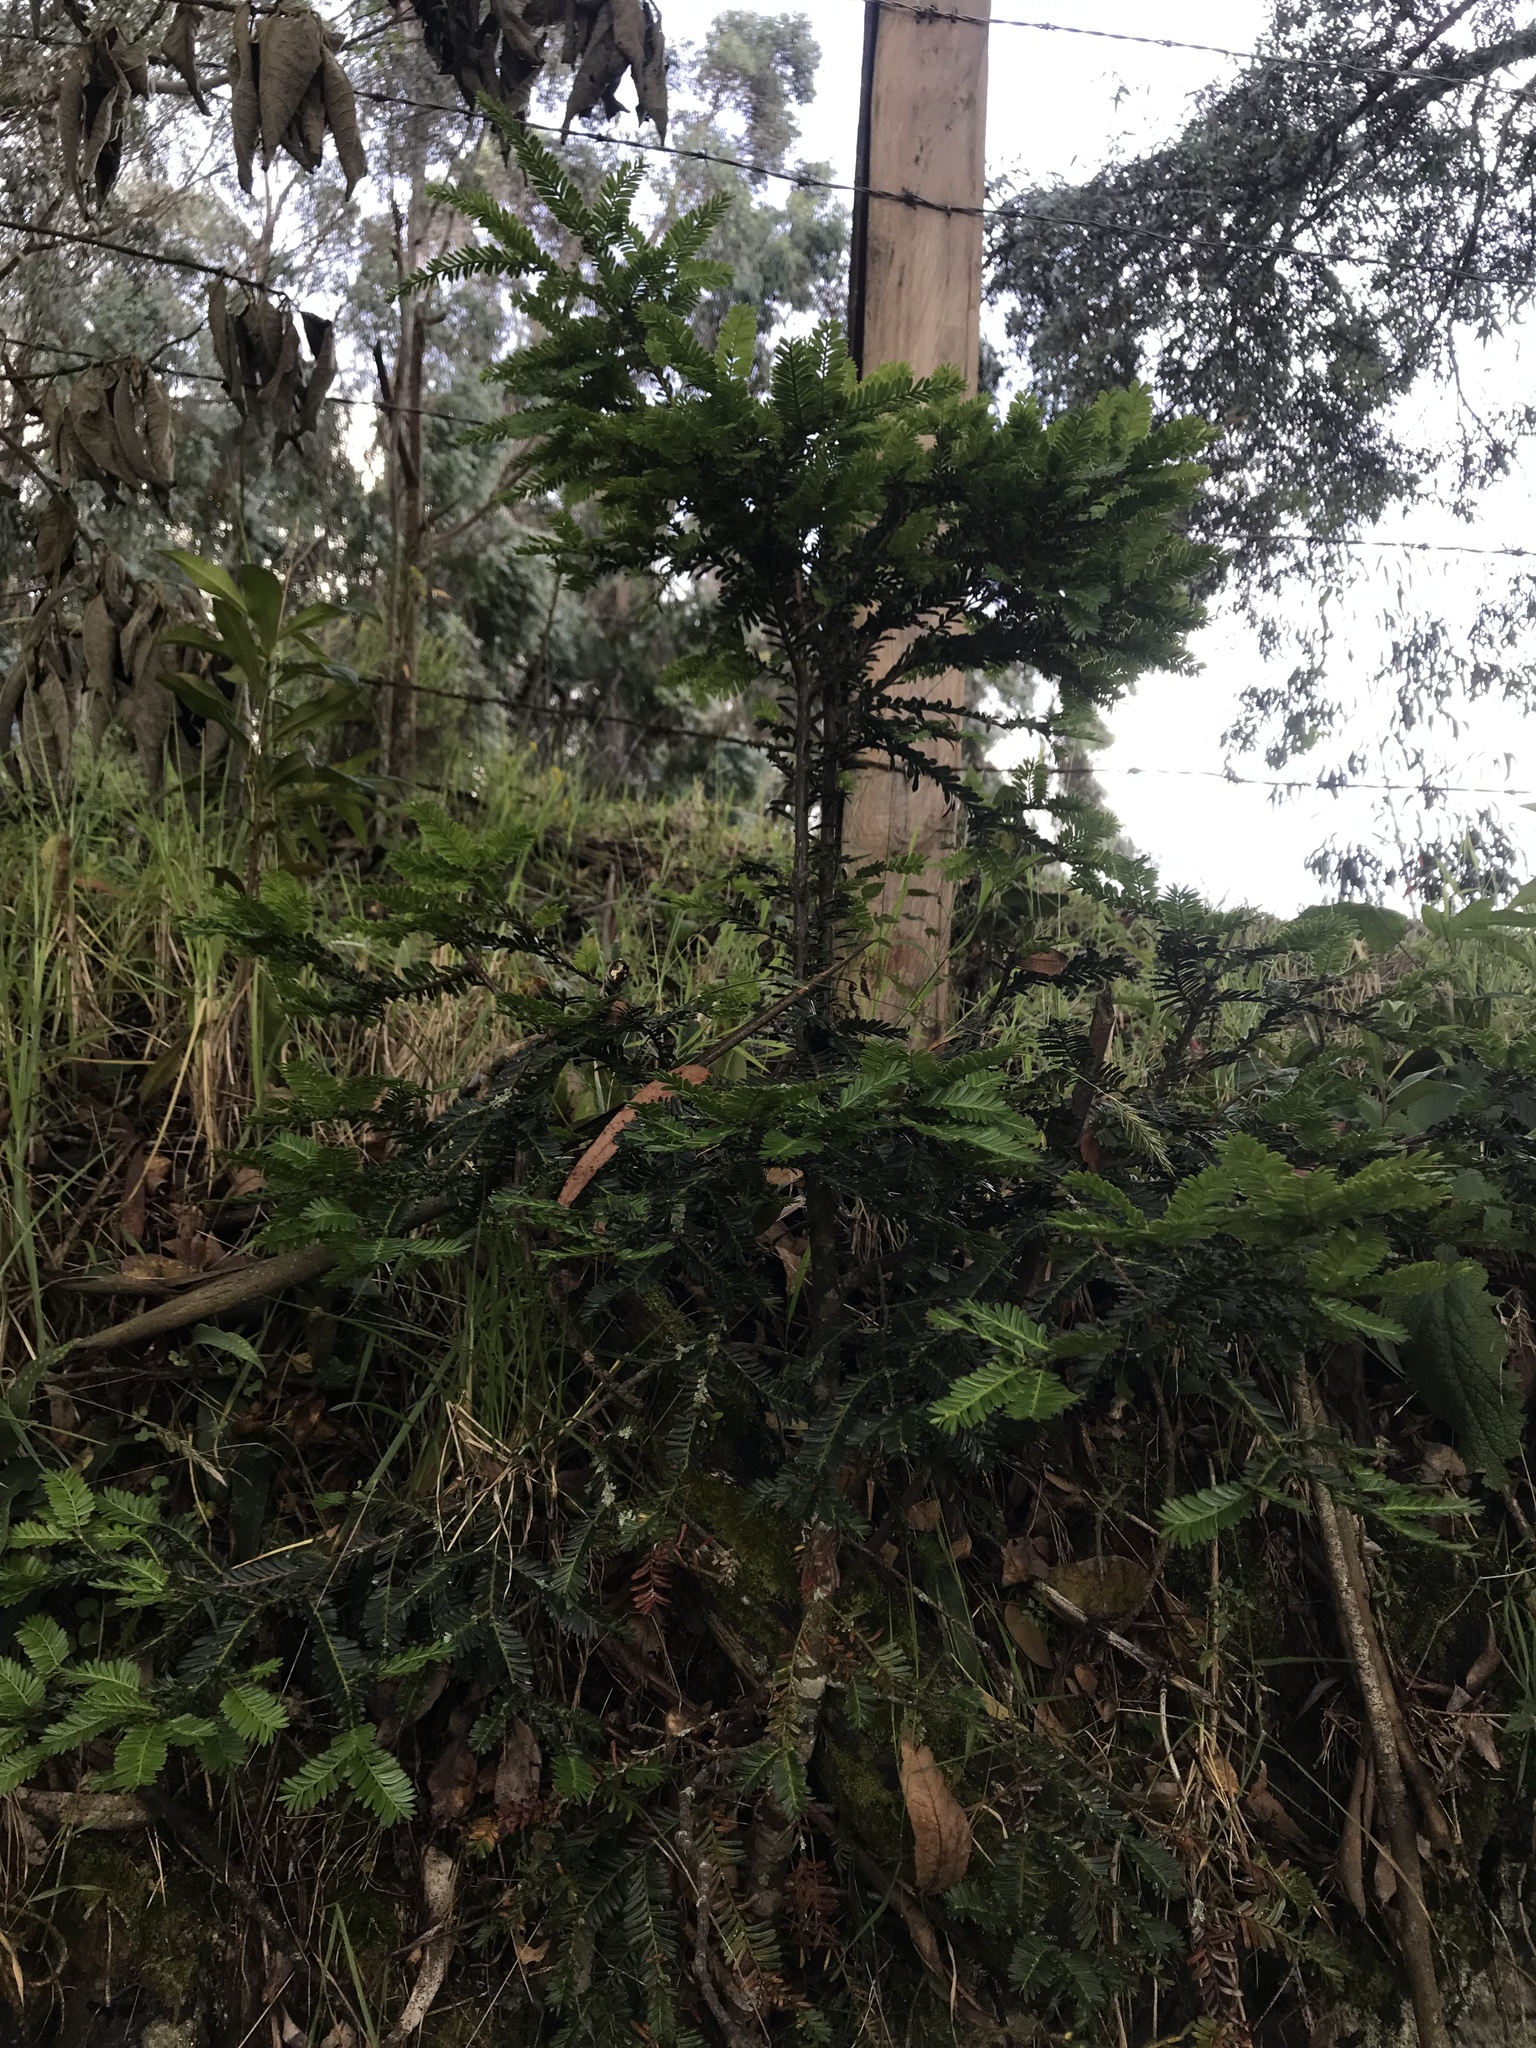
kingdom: Plantae
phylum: Tracheophyta
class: Pinopsida
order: Pinales
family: Podocarpaceae
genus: Prumnopitys
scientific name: Prumnopitys montana
